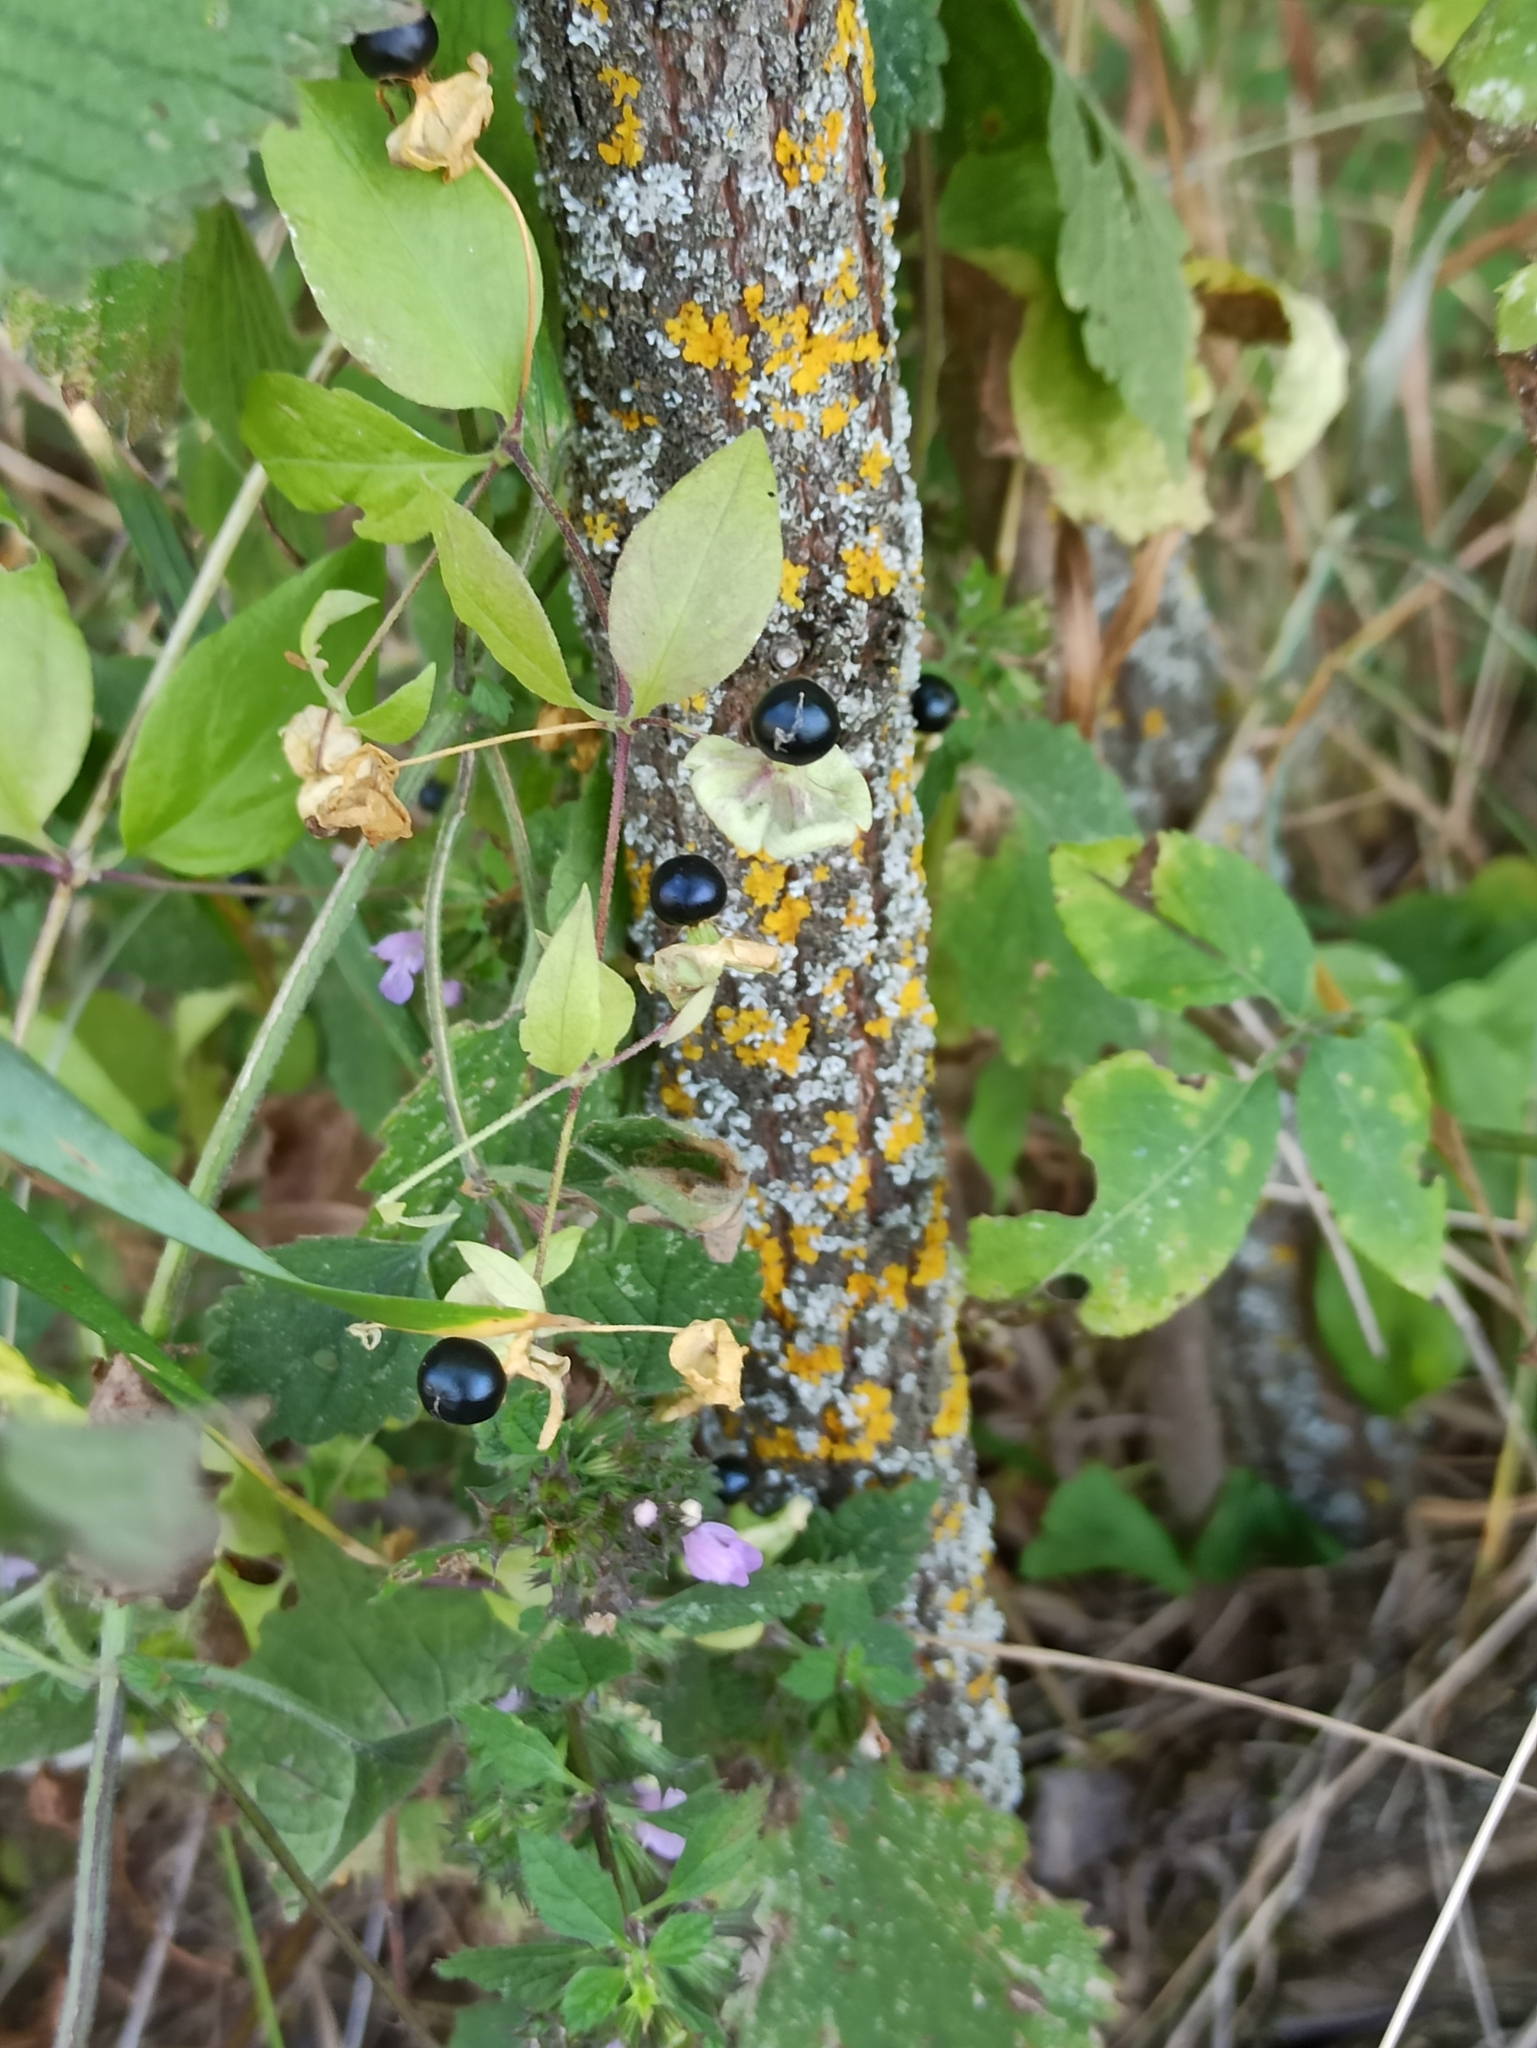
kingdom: Plantae
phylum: Tracheophyta
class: Magnoliopsida
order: Caryophyllales
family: Caryophyllaceae
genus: Silene
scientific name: Silene baccifera
